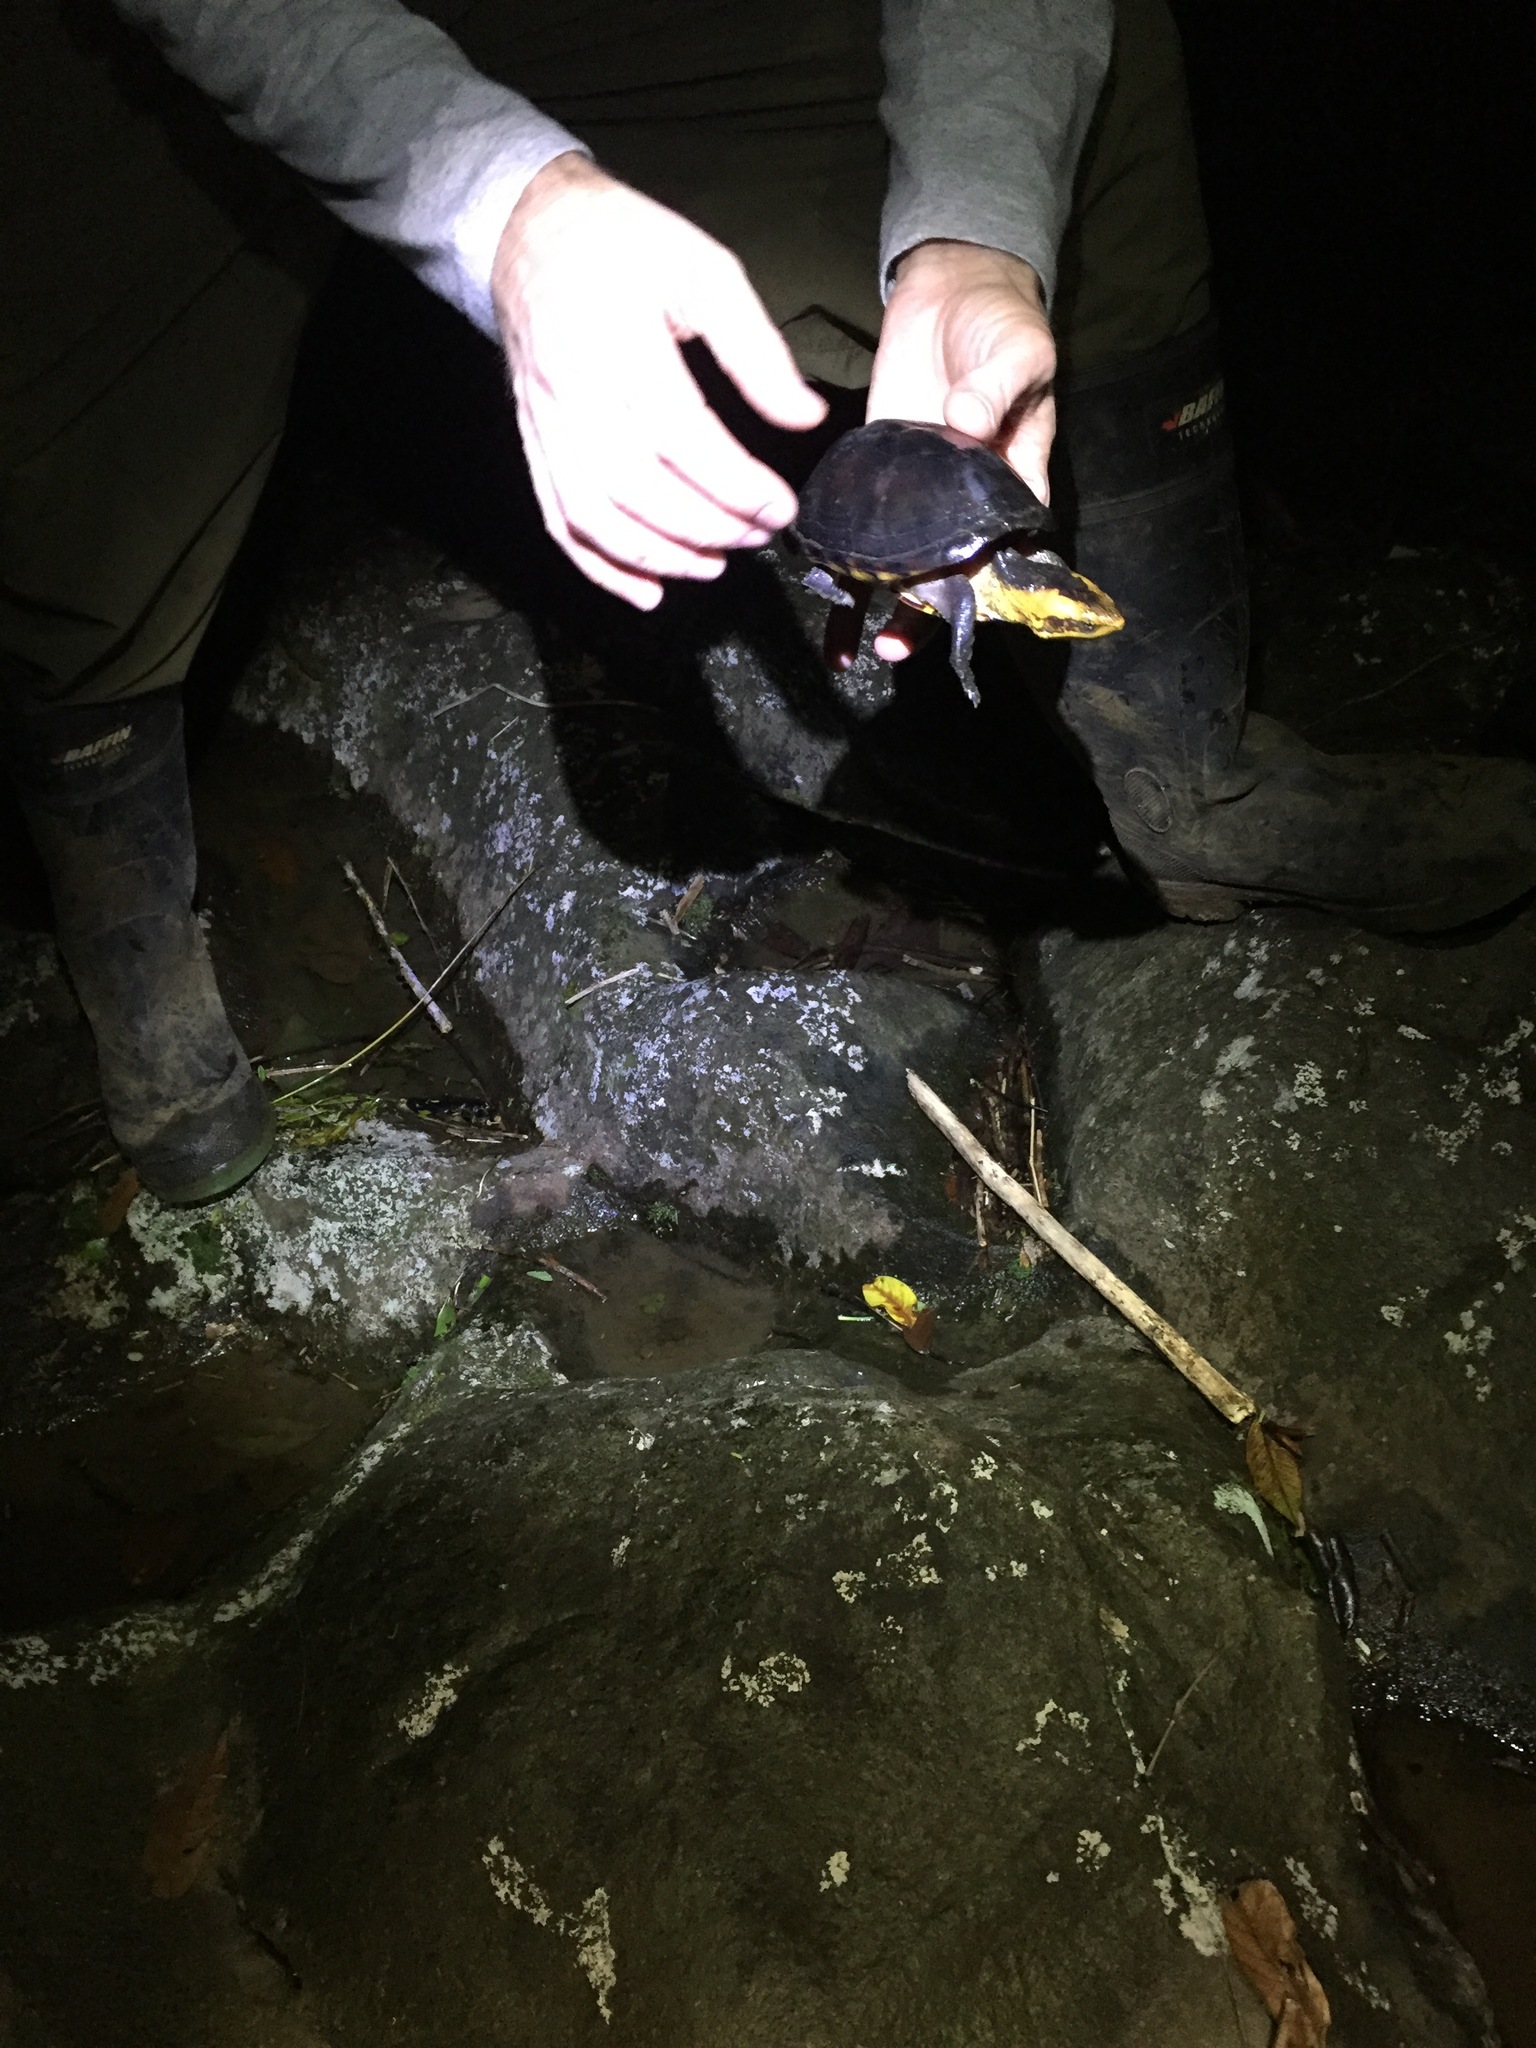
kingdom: Animalia
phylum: Chordata
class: Testudines
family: Kinosternidae
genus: Kinosternon
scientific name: Kinosternon leucostomum
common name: White-lipped mud turtle
